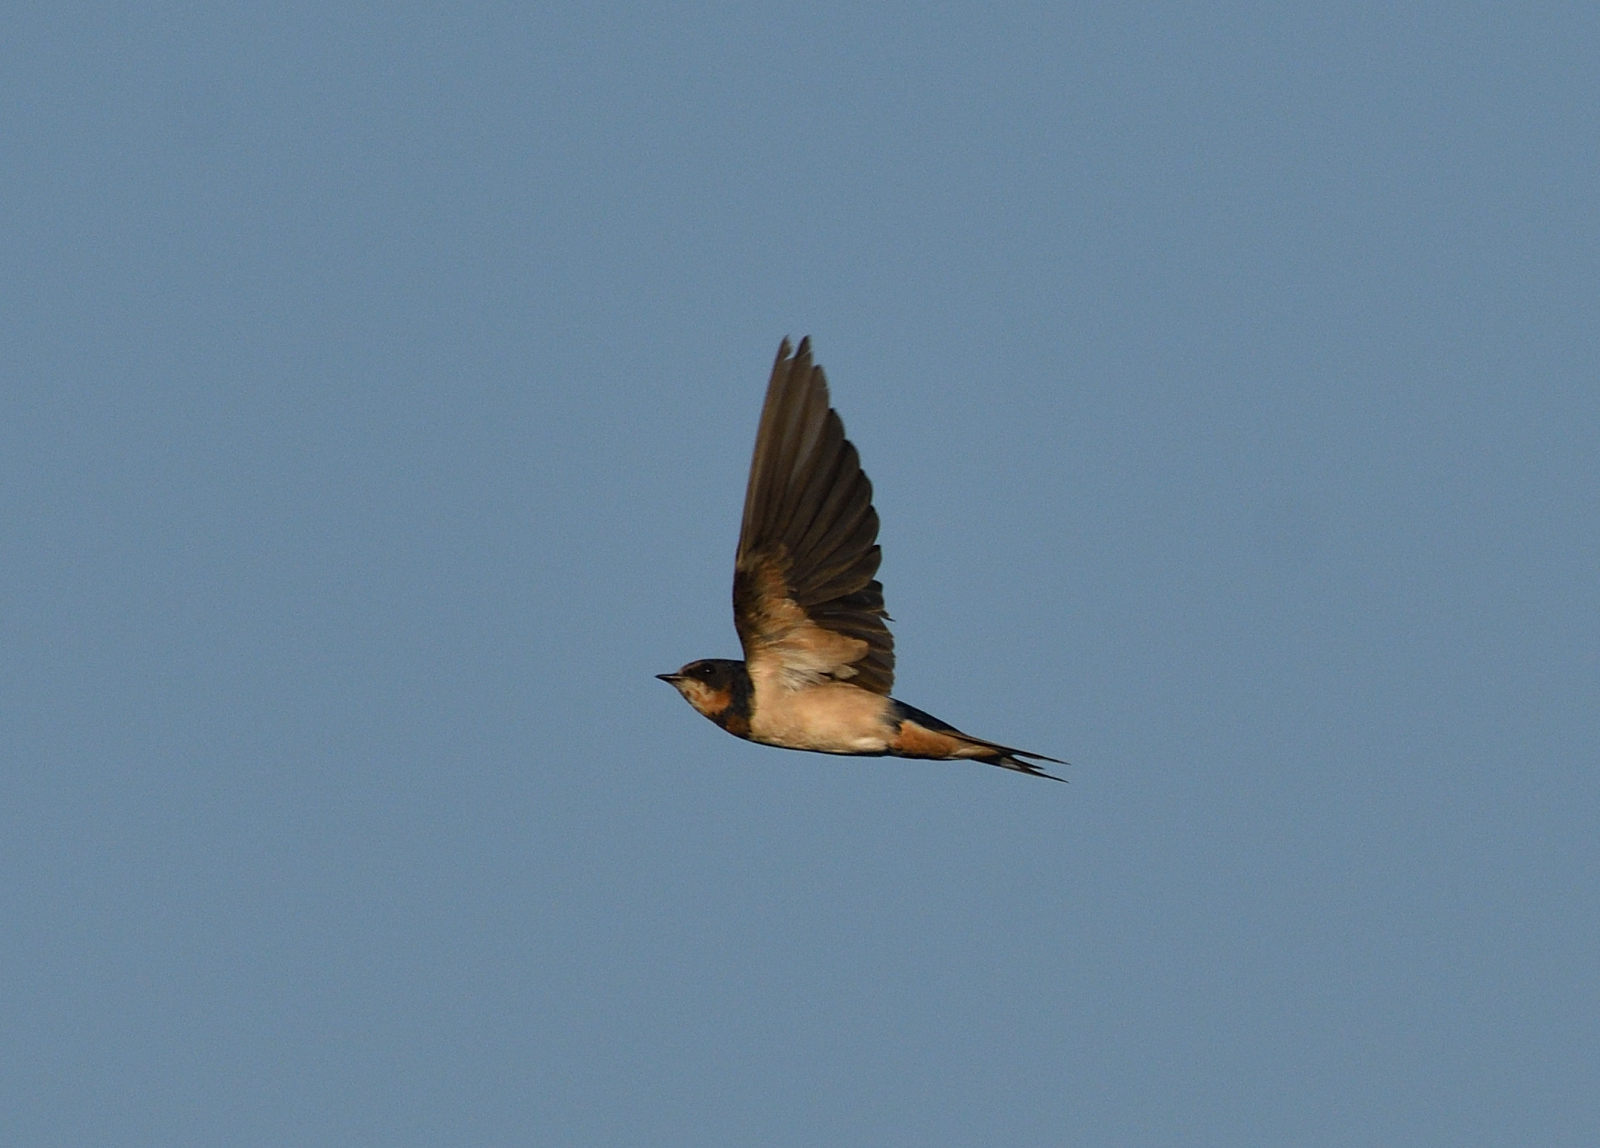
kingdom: Animalia
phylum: Chordata
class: Aves
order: Passeriformes
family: Hirundinidae
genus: Hirundo
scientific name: Hirundo rustica
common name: Barn swallow
